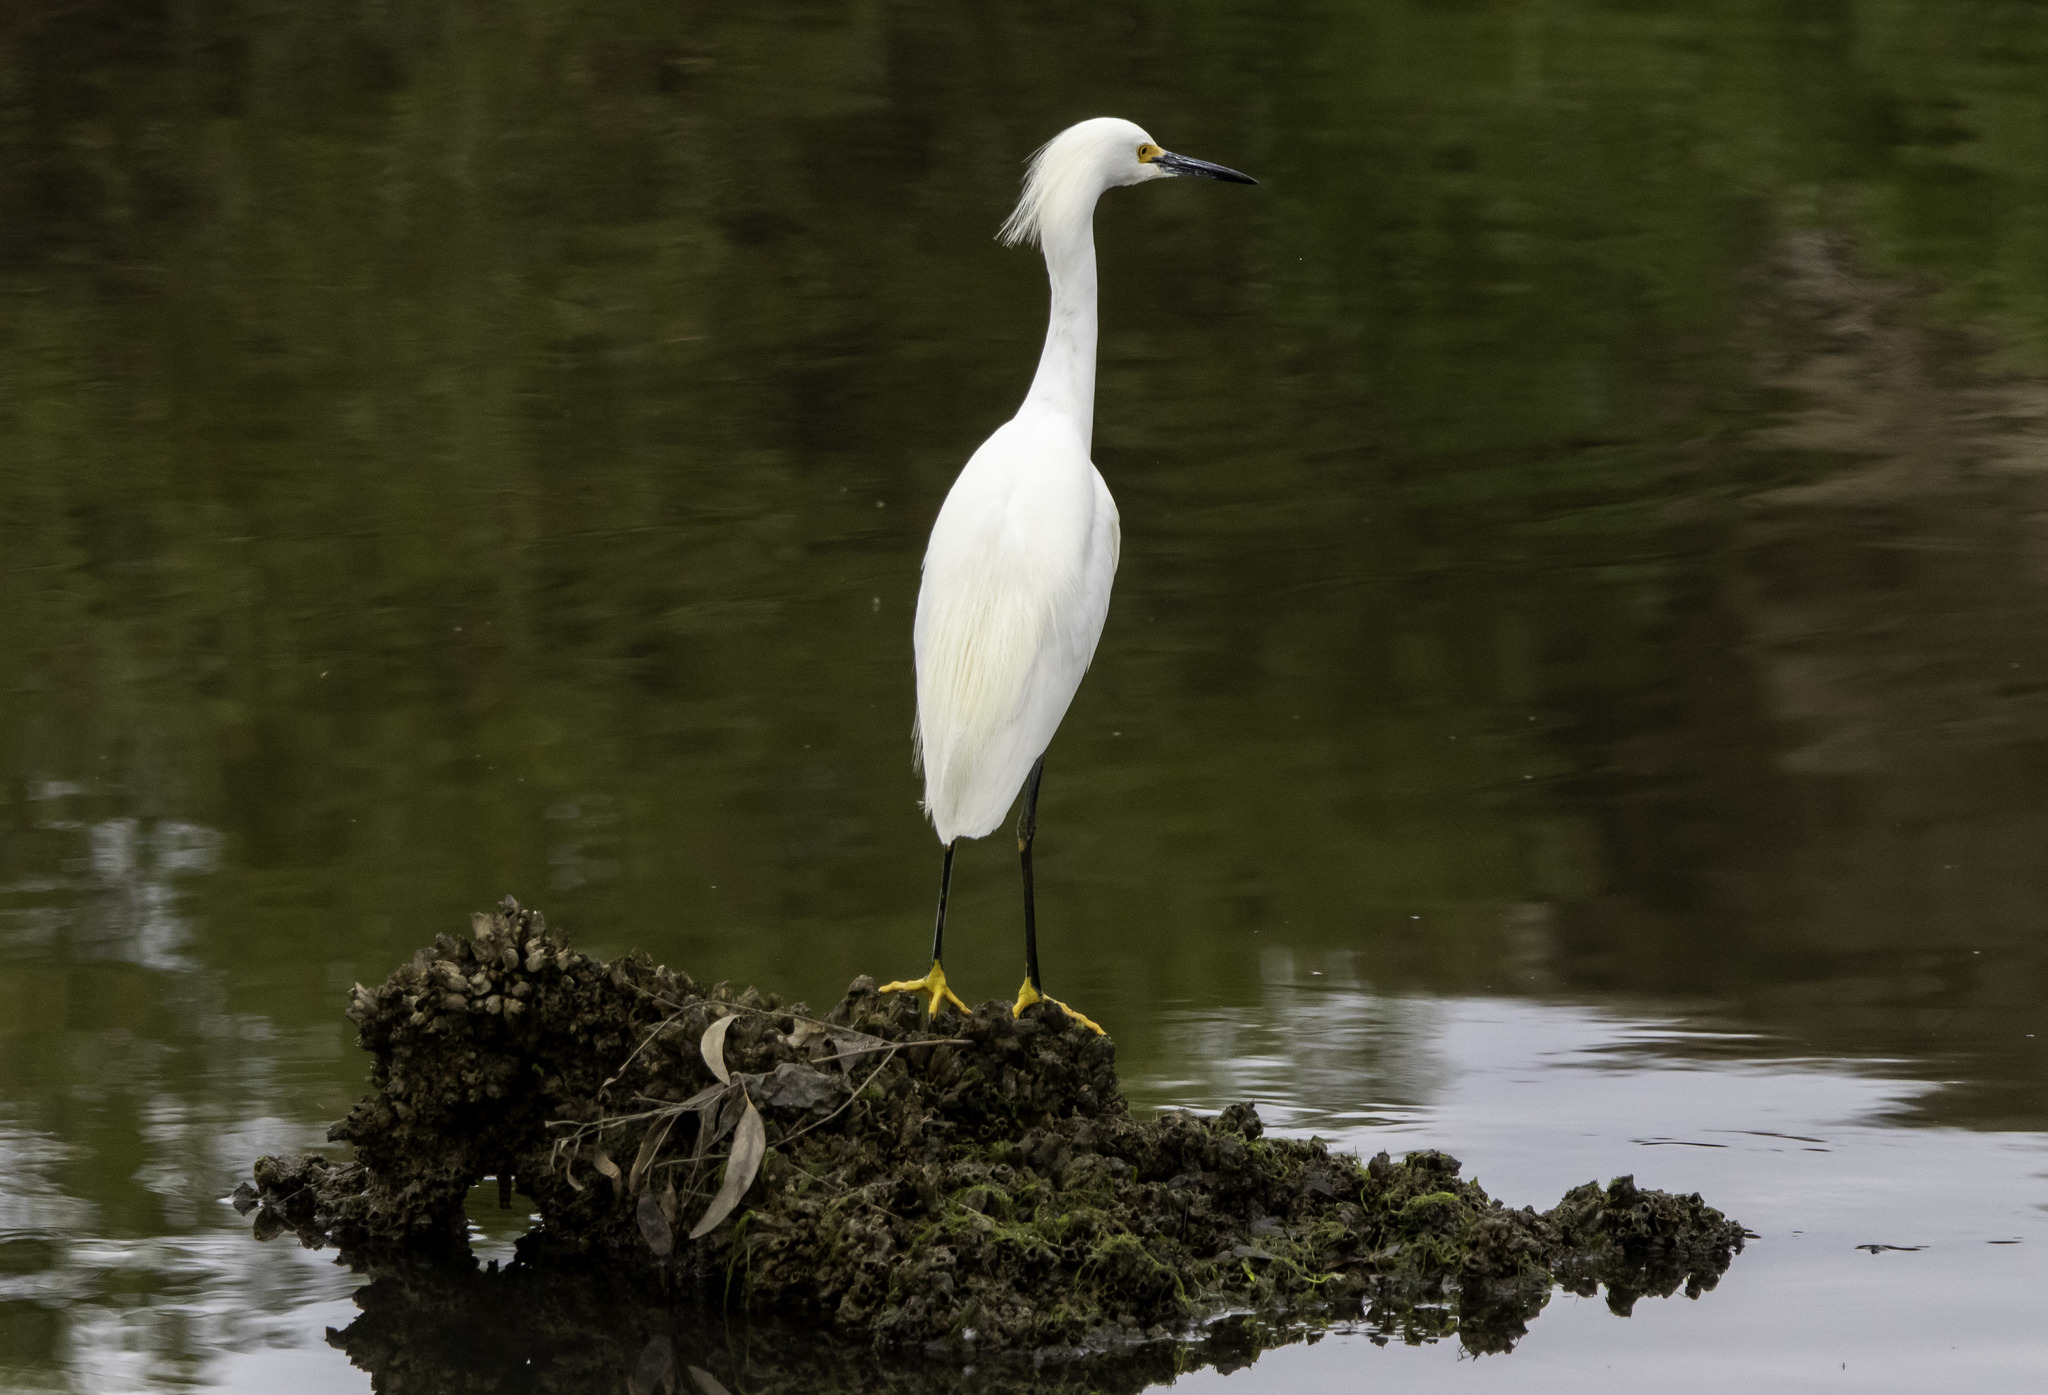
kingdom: Animalia
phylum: Chordata
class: Aves
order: Pelecaniformes
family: Ardeidae
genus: Egretta
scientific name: Egretta thula
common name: Snowy egret
